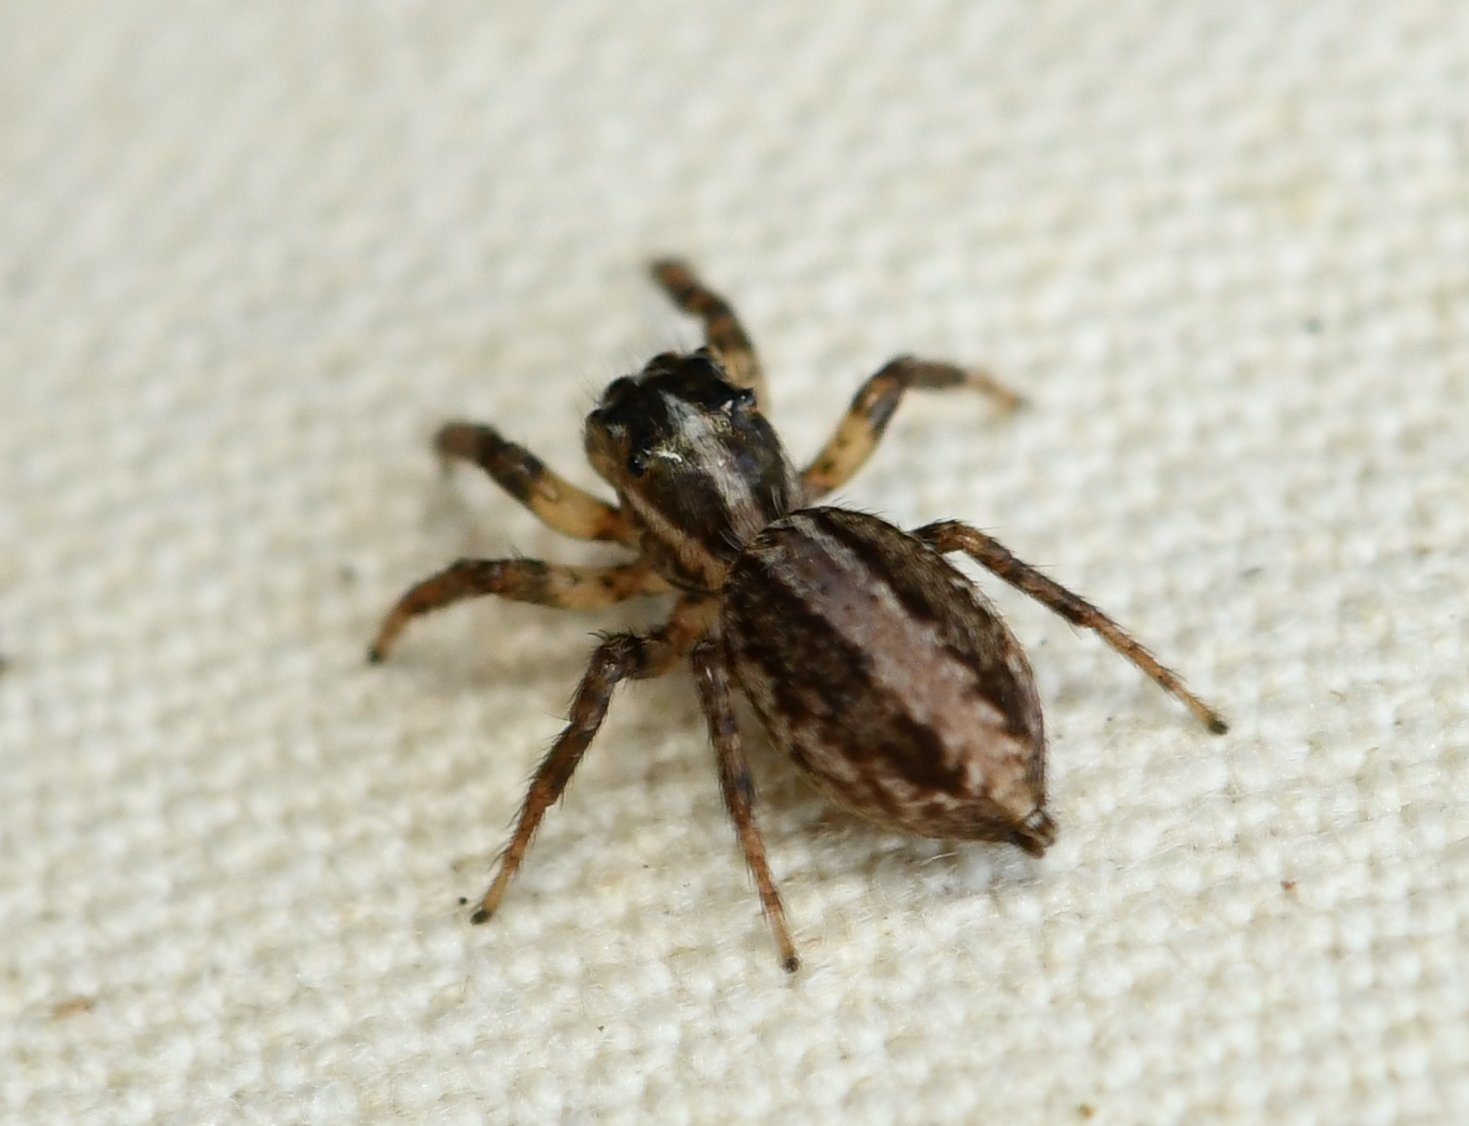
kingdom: Animalia
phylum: Arthropoda
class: Arachnida
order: Araneae
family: Salticidae
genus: Leptofreya
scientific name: Leptofreya ambigua
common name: Jumping spider
